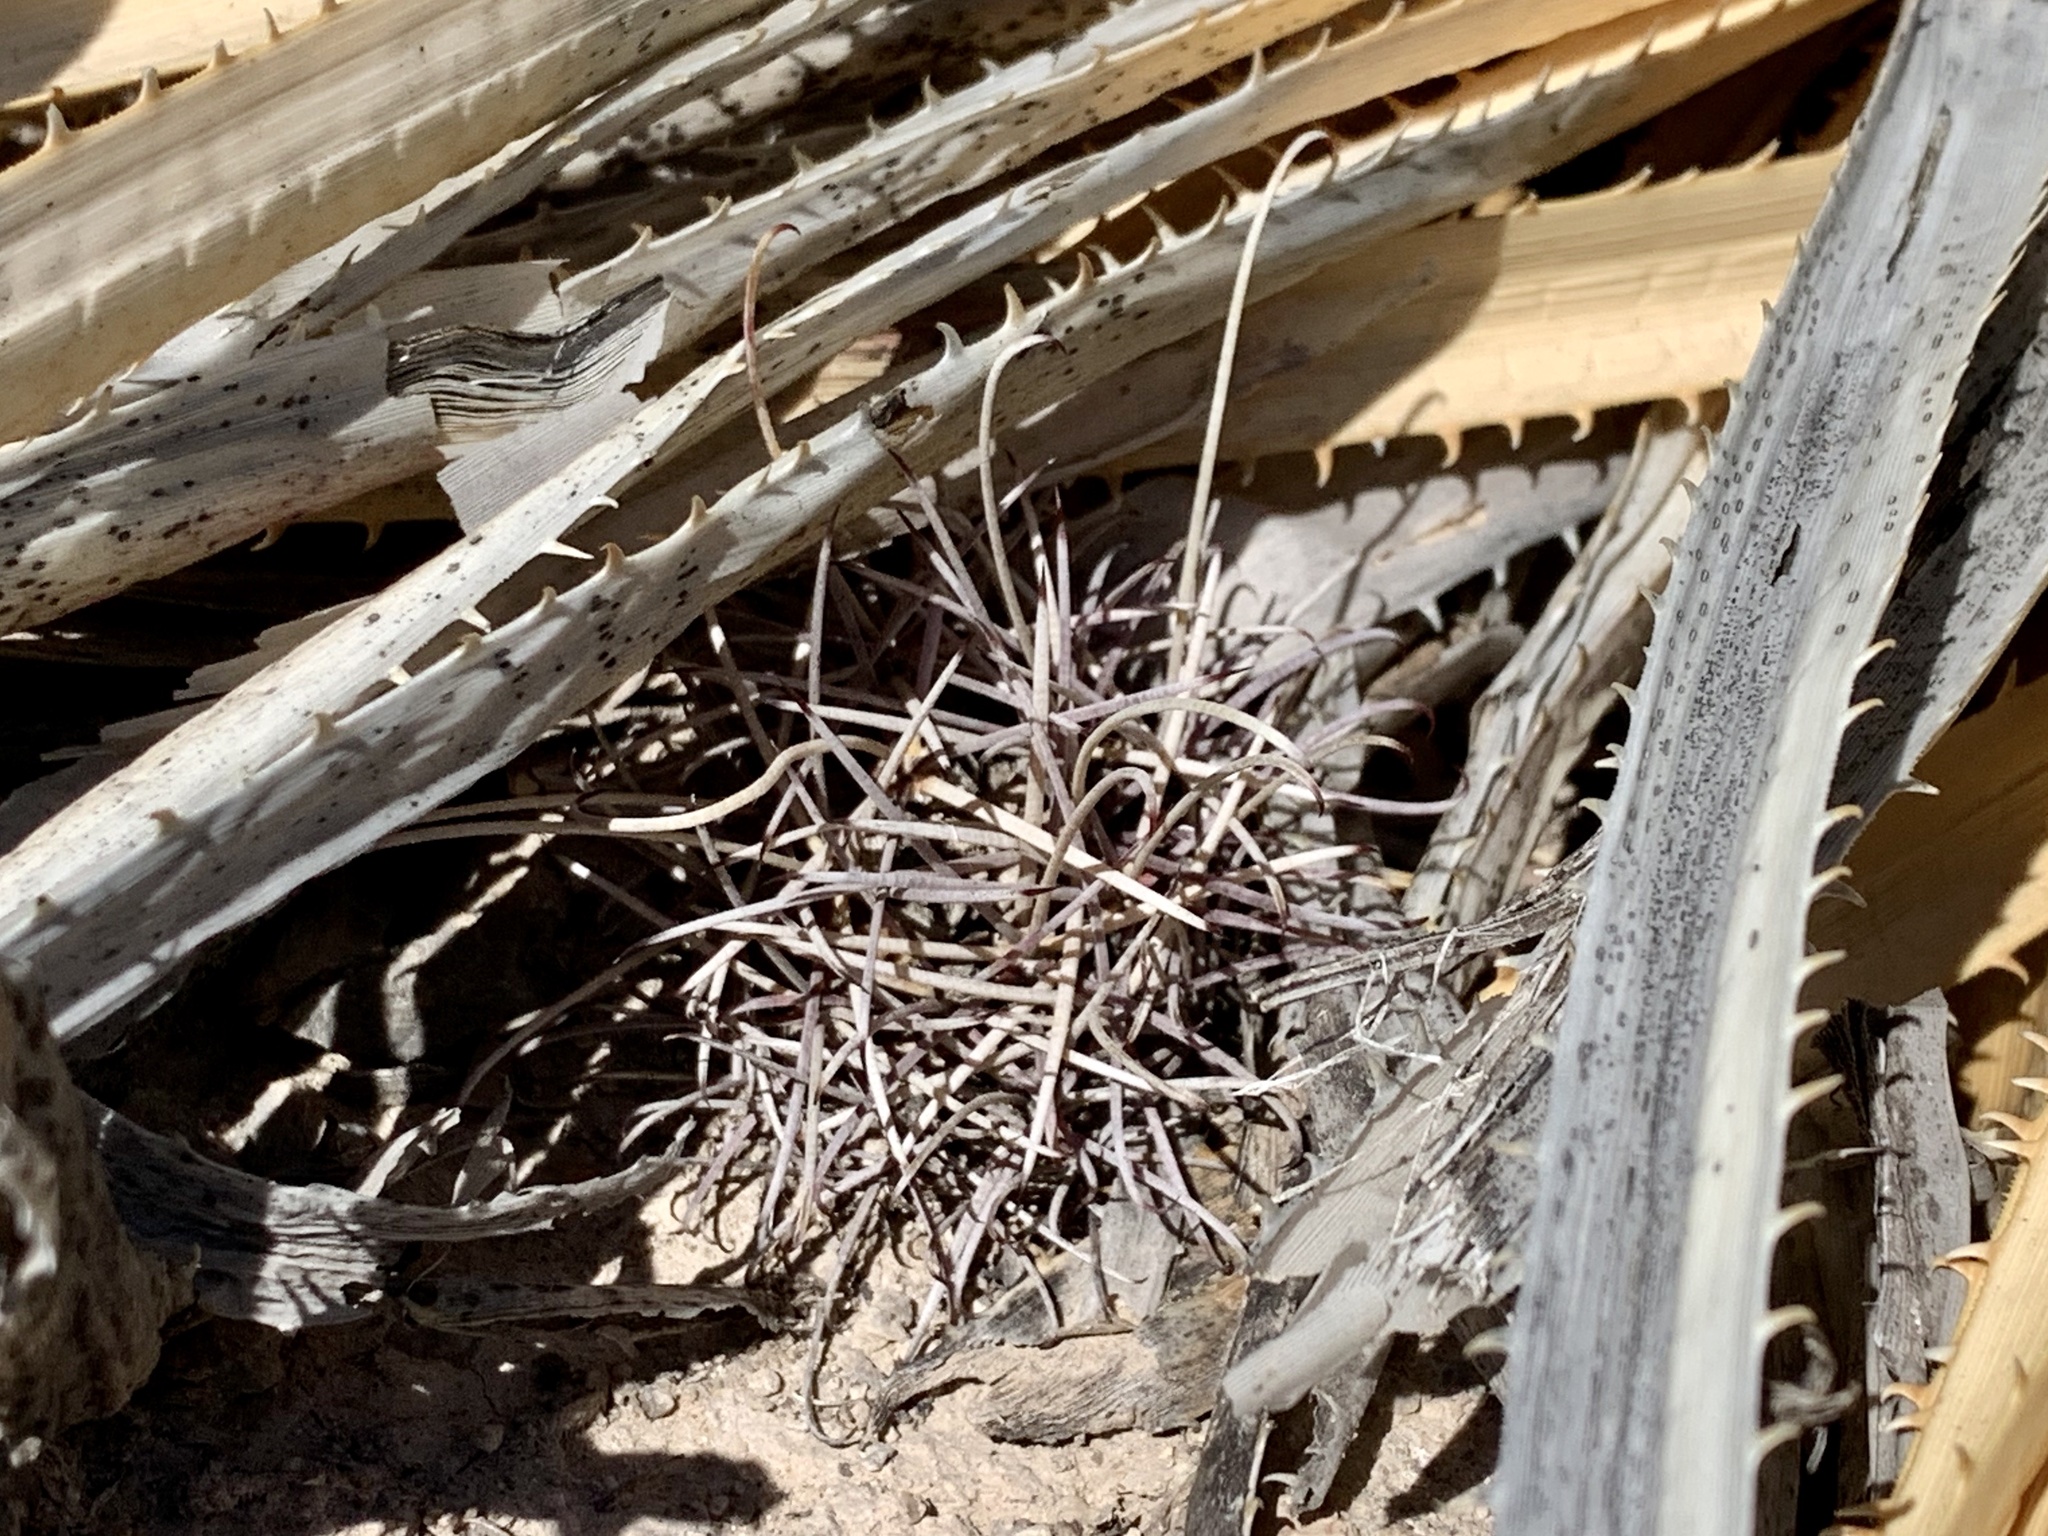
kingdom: Plantae
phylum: Tracheophyta
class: Magnoliopsida
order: Caryophyllales
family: Cactaceae
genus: Ferocactus
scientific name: Ferocactus uncinatus
